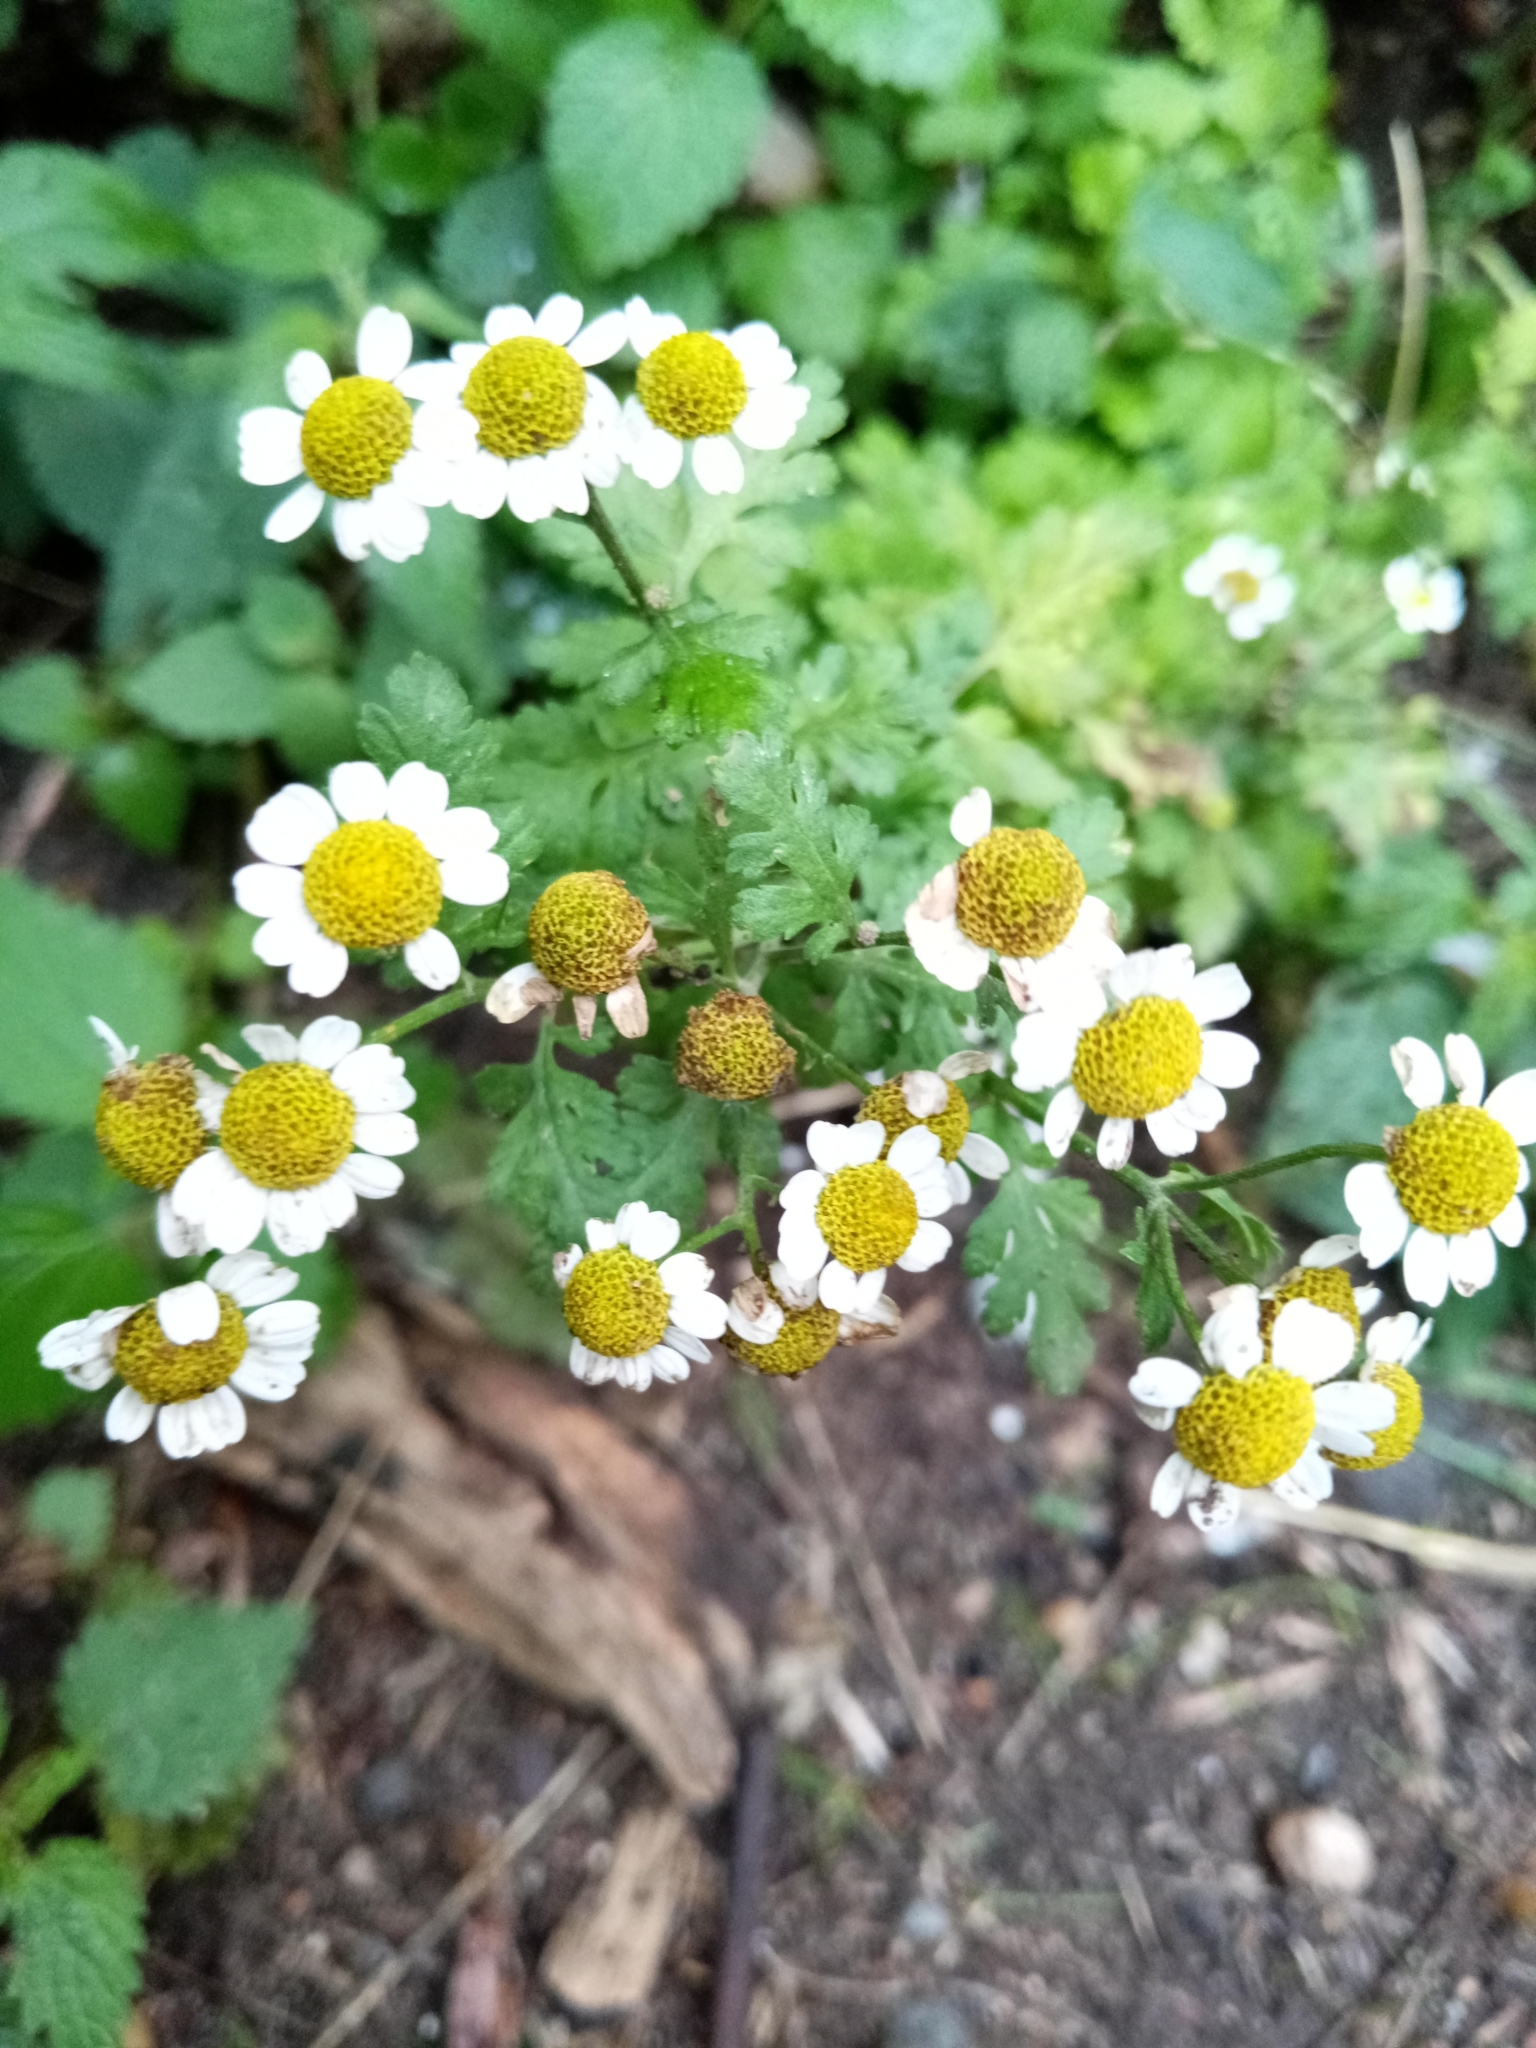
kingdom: Plantae
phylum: Tracheophyta
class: Magnoliopsida
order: Asterales
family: Asteraceae
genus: Tanacetum
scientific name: Tanacetum parthenium
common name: Feverfew
